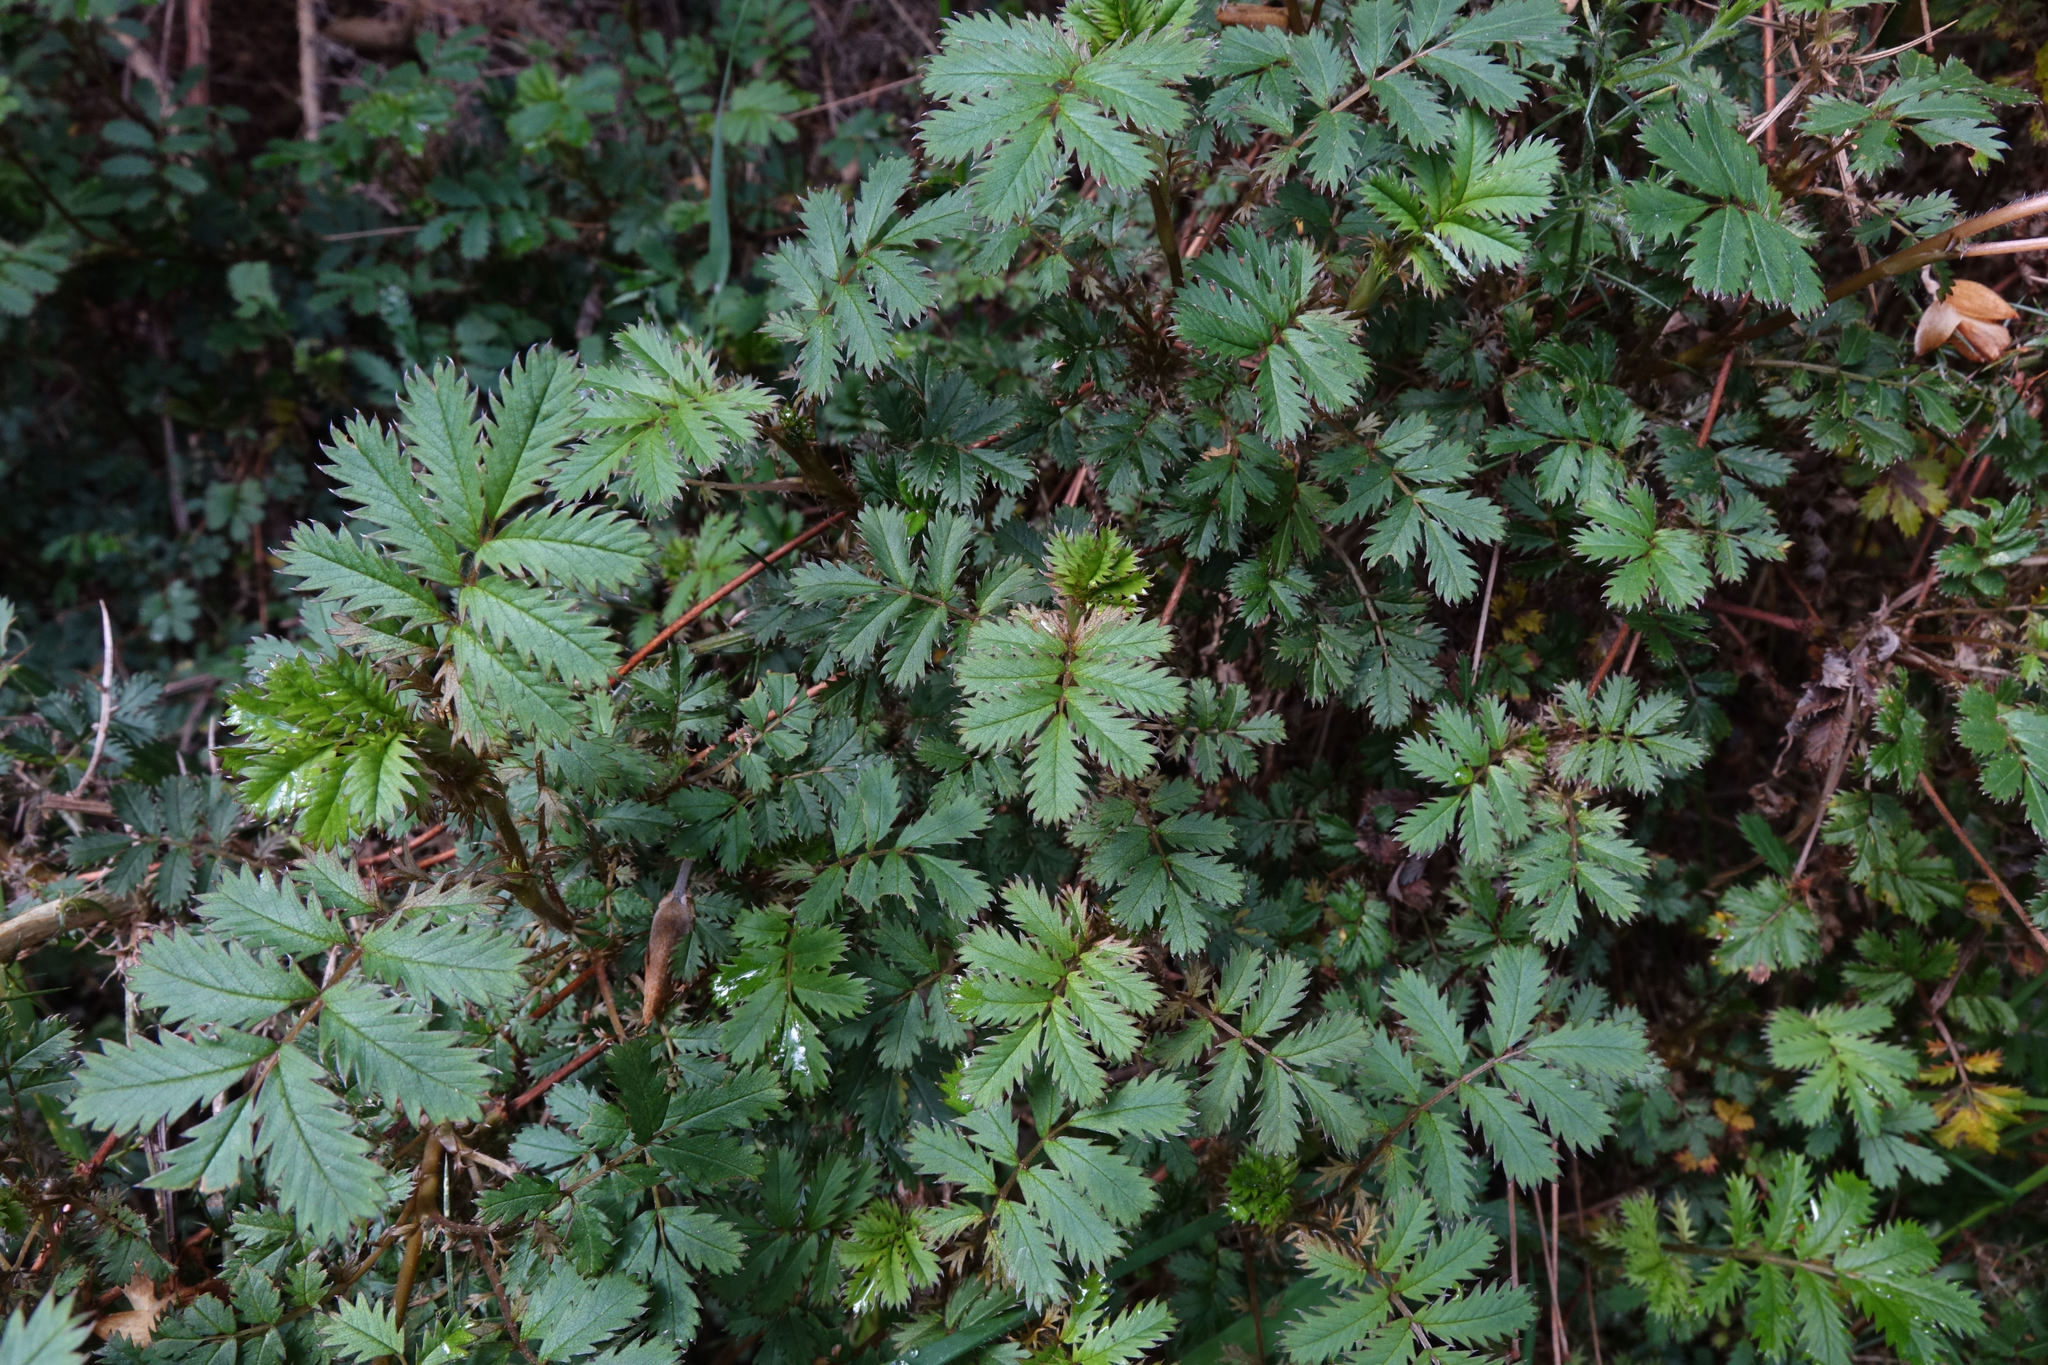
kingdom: Plantae
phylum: Tracheophyta
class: Magnoliopsida
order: Rosales
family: Rosaceae
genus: Acaena
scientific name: Acaena anserinifolia
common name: Bronze pirri-pirri-bur
